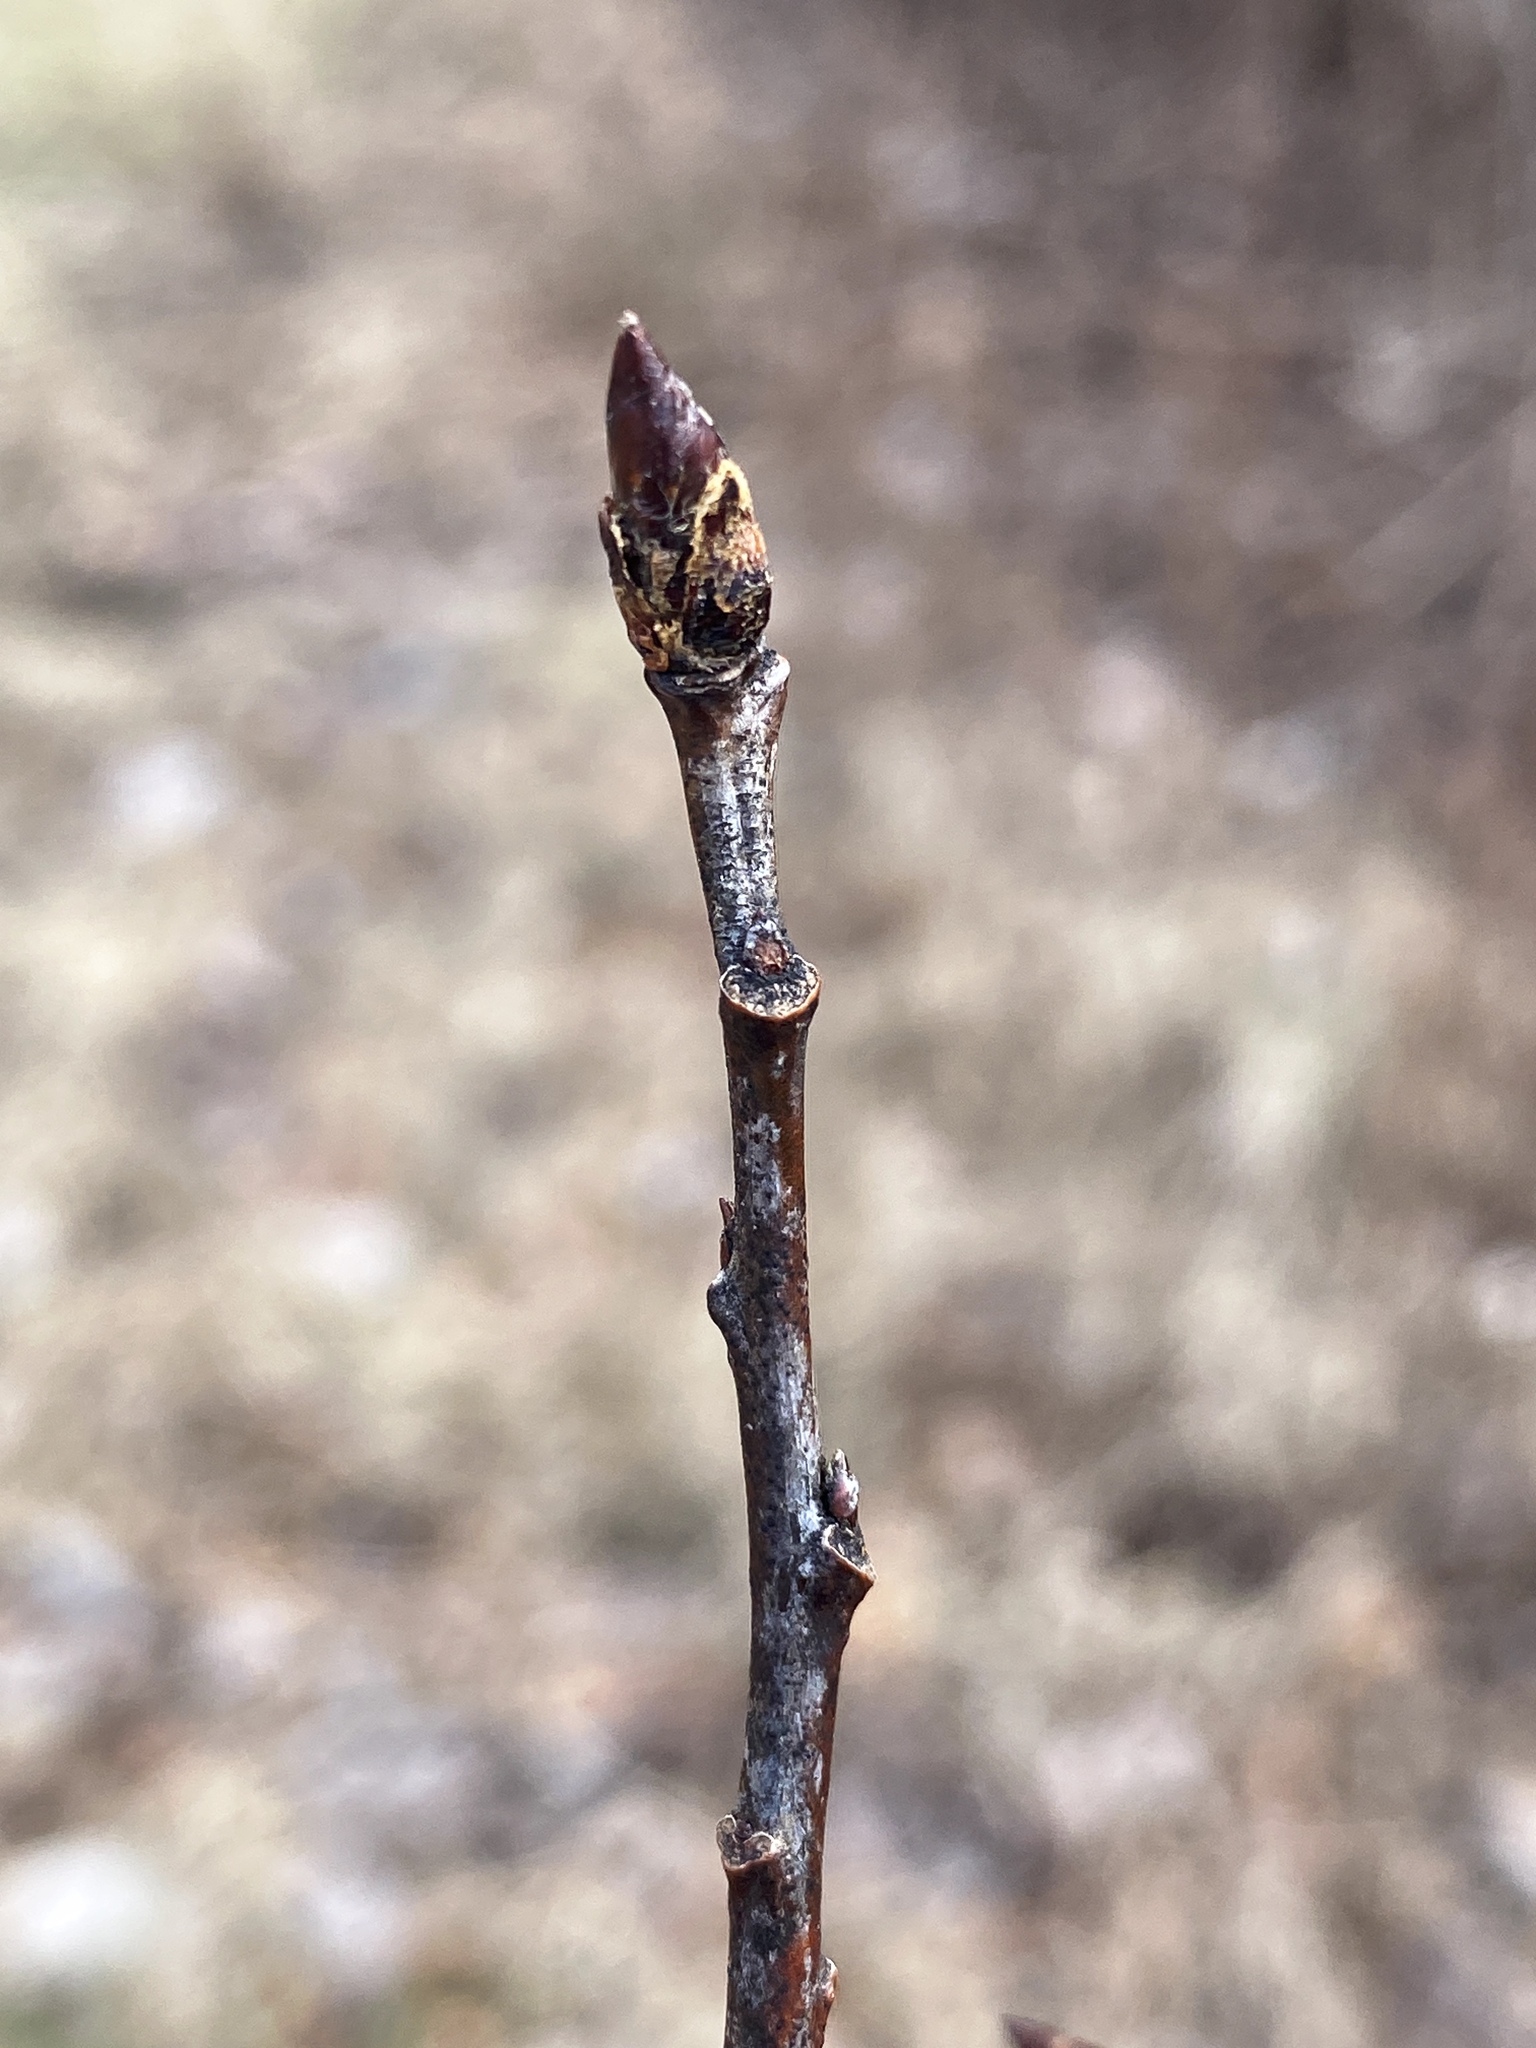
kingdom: Plantae
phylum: Tracheophyta
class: Magnoliopsida
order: Malpighiales
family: Salicaceae
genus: Populus
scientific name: Populus deltoides
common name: Eastern cottonwood
